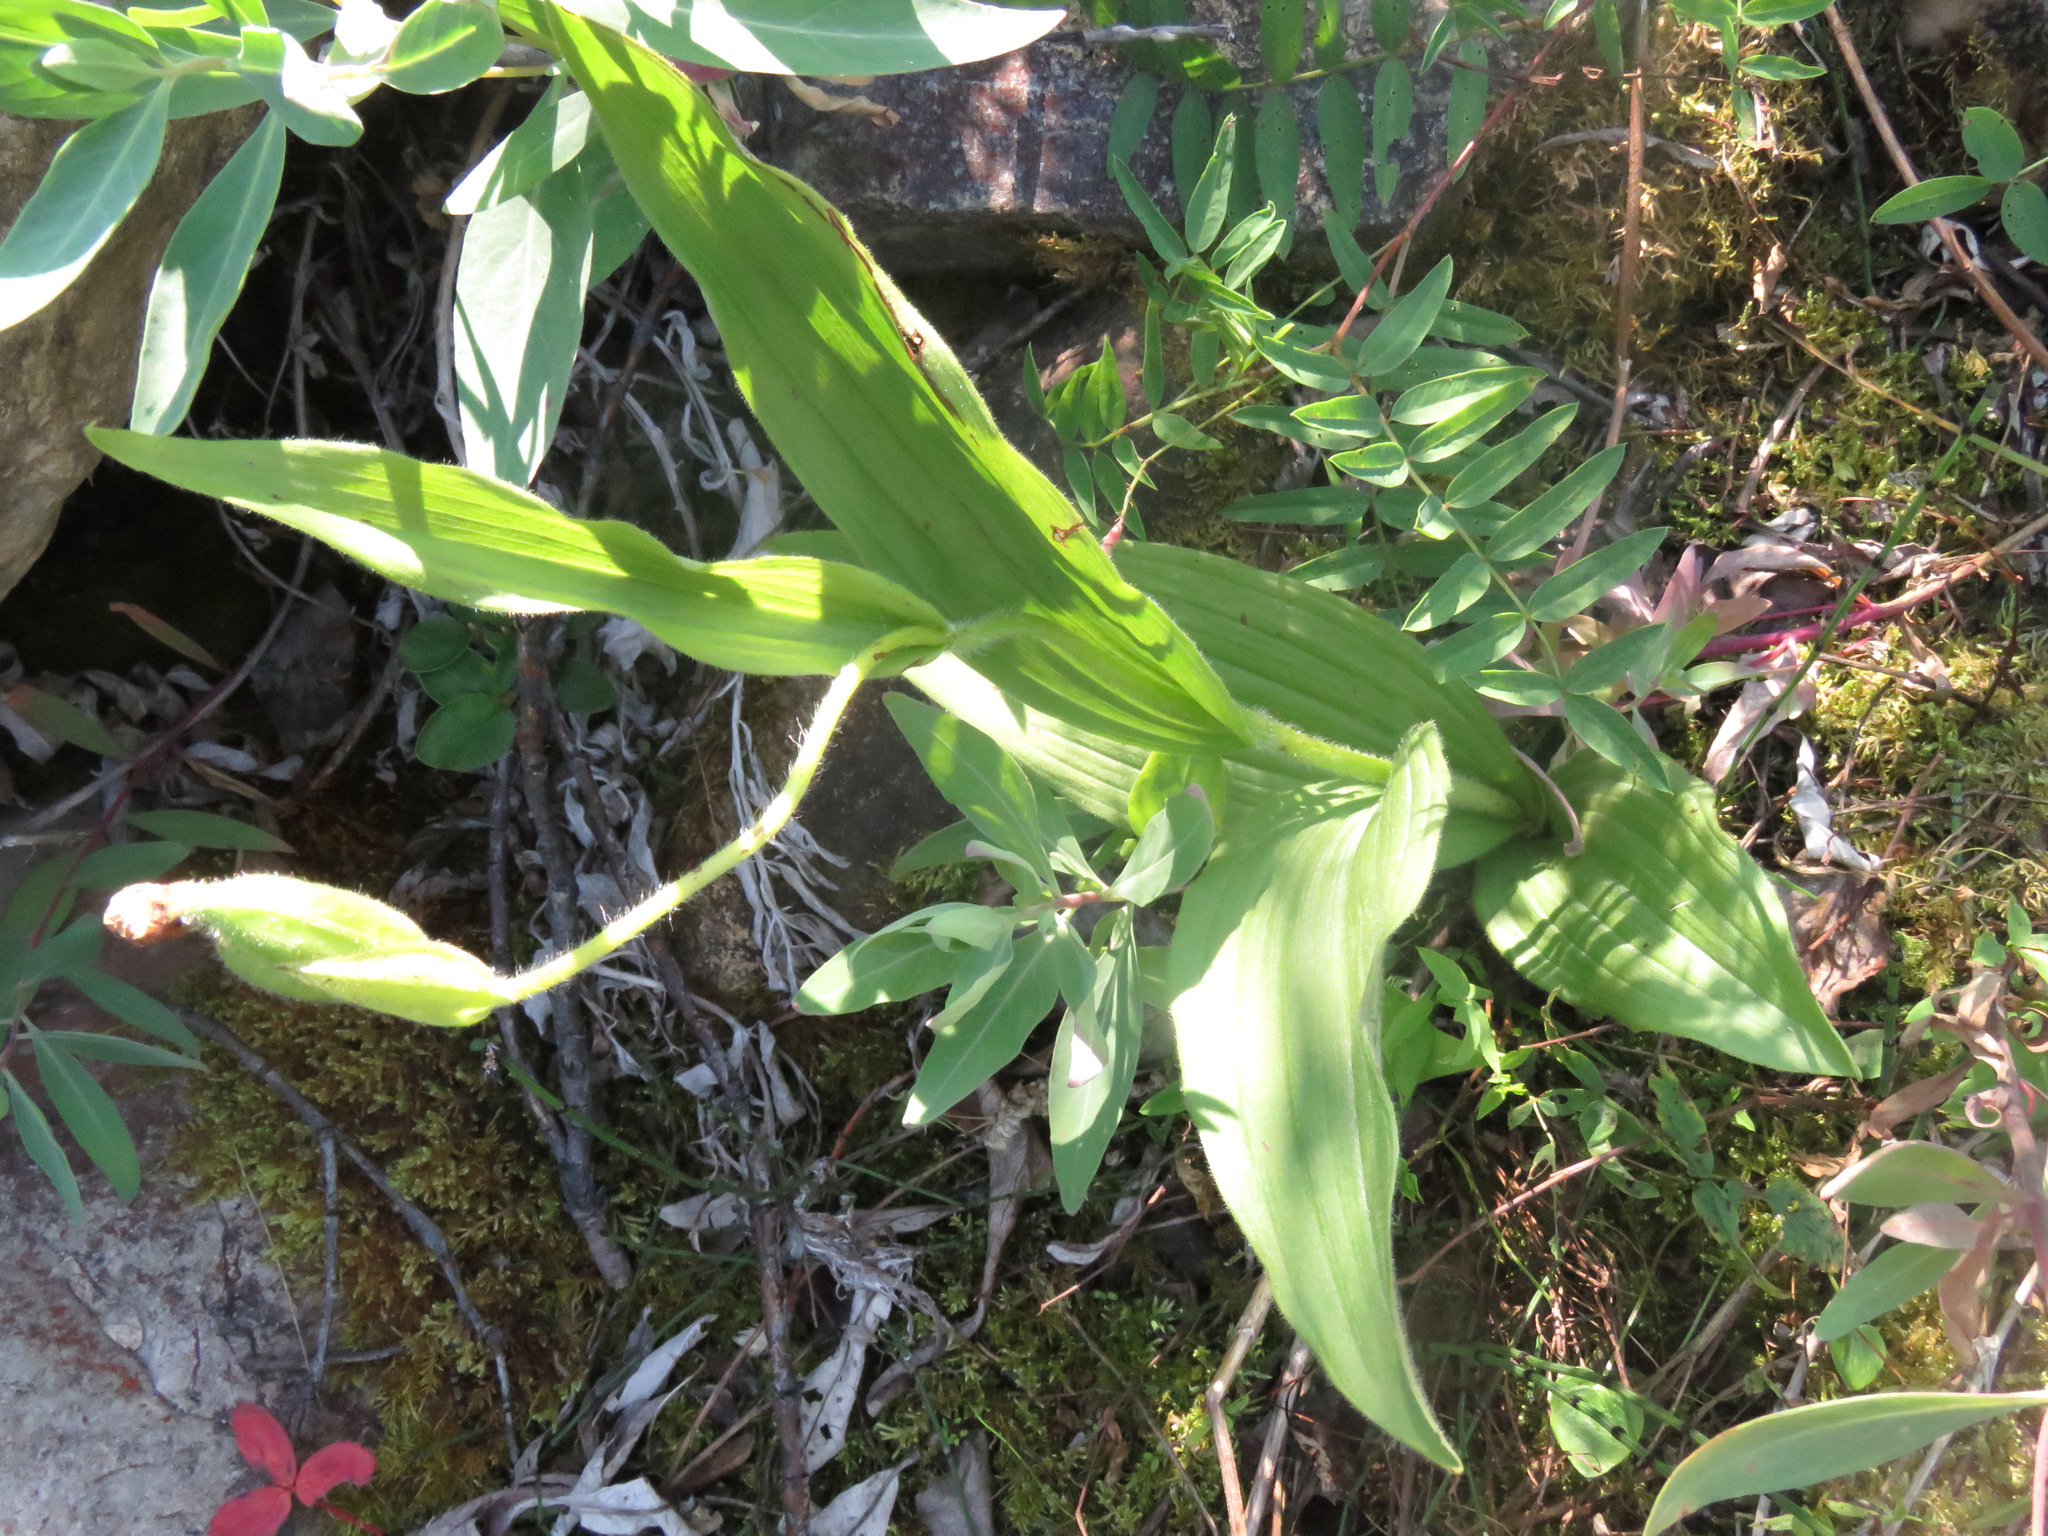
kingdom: Plantae
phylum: Tracheophyta
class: Liliopsida
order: Asparagales
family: Orchidaceae
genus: Cypripedium
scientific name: Cypripedium passerinum
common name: Sparrow's-egg lady's-slipper
